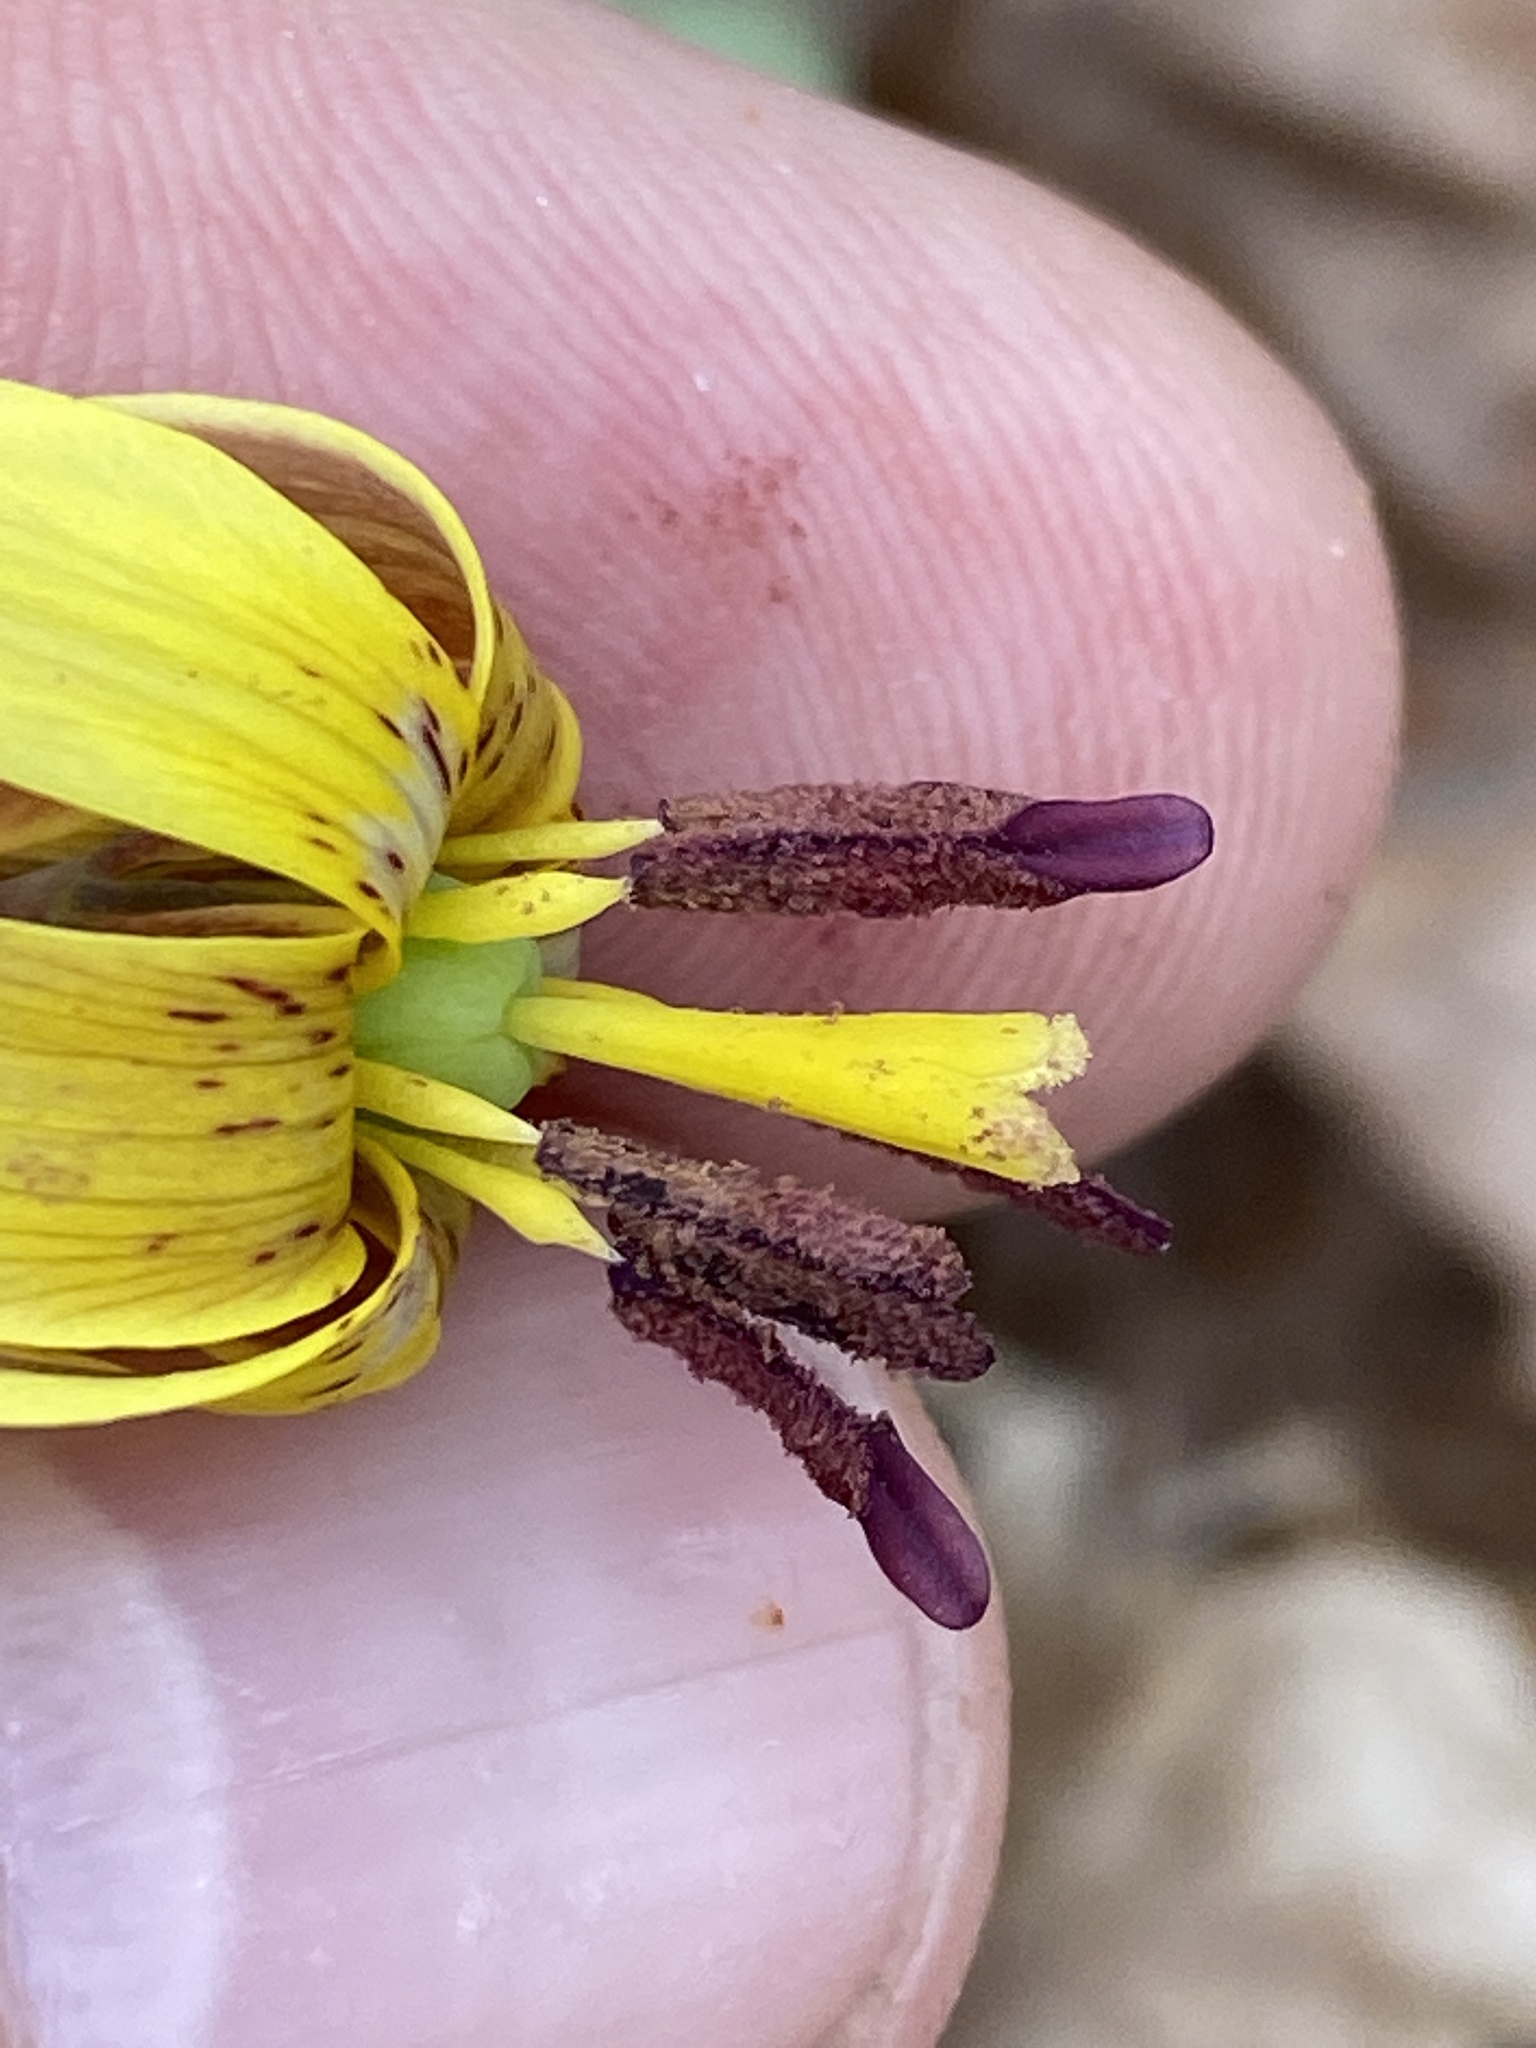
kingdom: Plantae
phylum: Tracheophyta
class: Liliopsida
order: Liliales
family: Liliaceae
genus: Erythronium
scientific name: Erythronium umbilicatum
